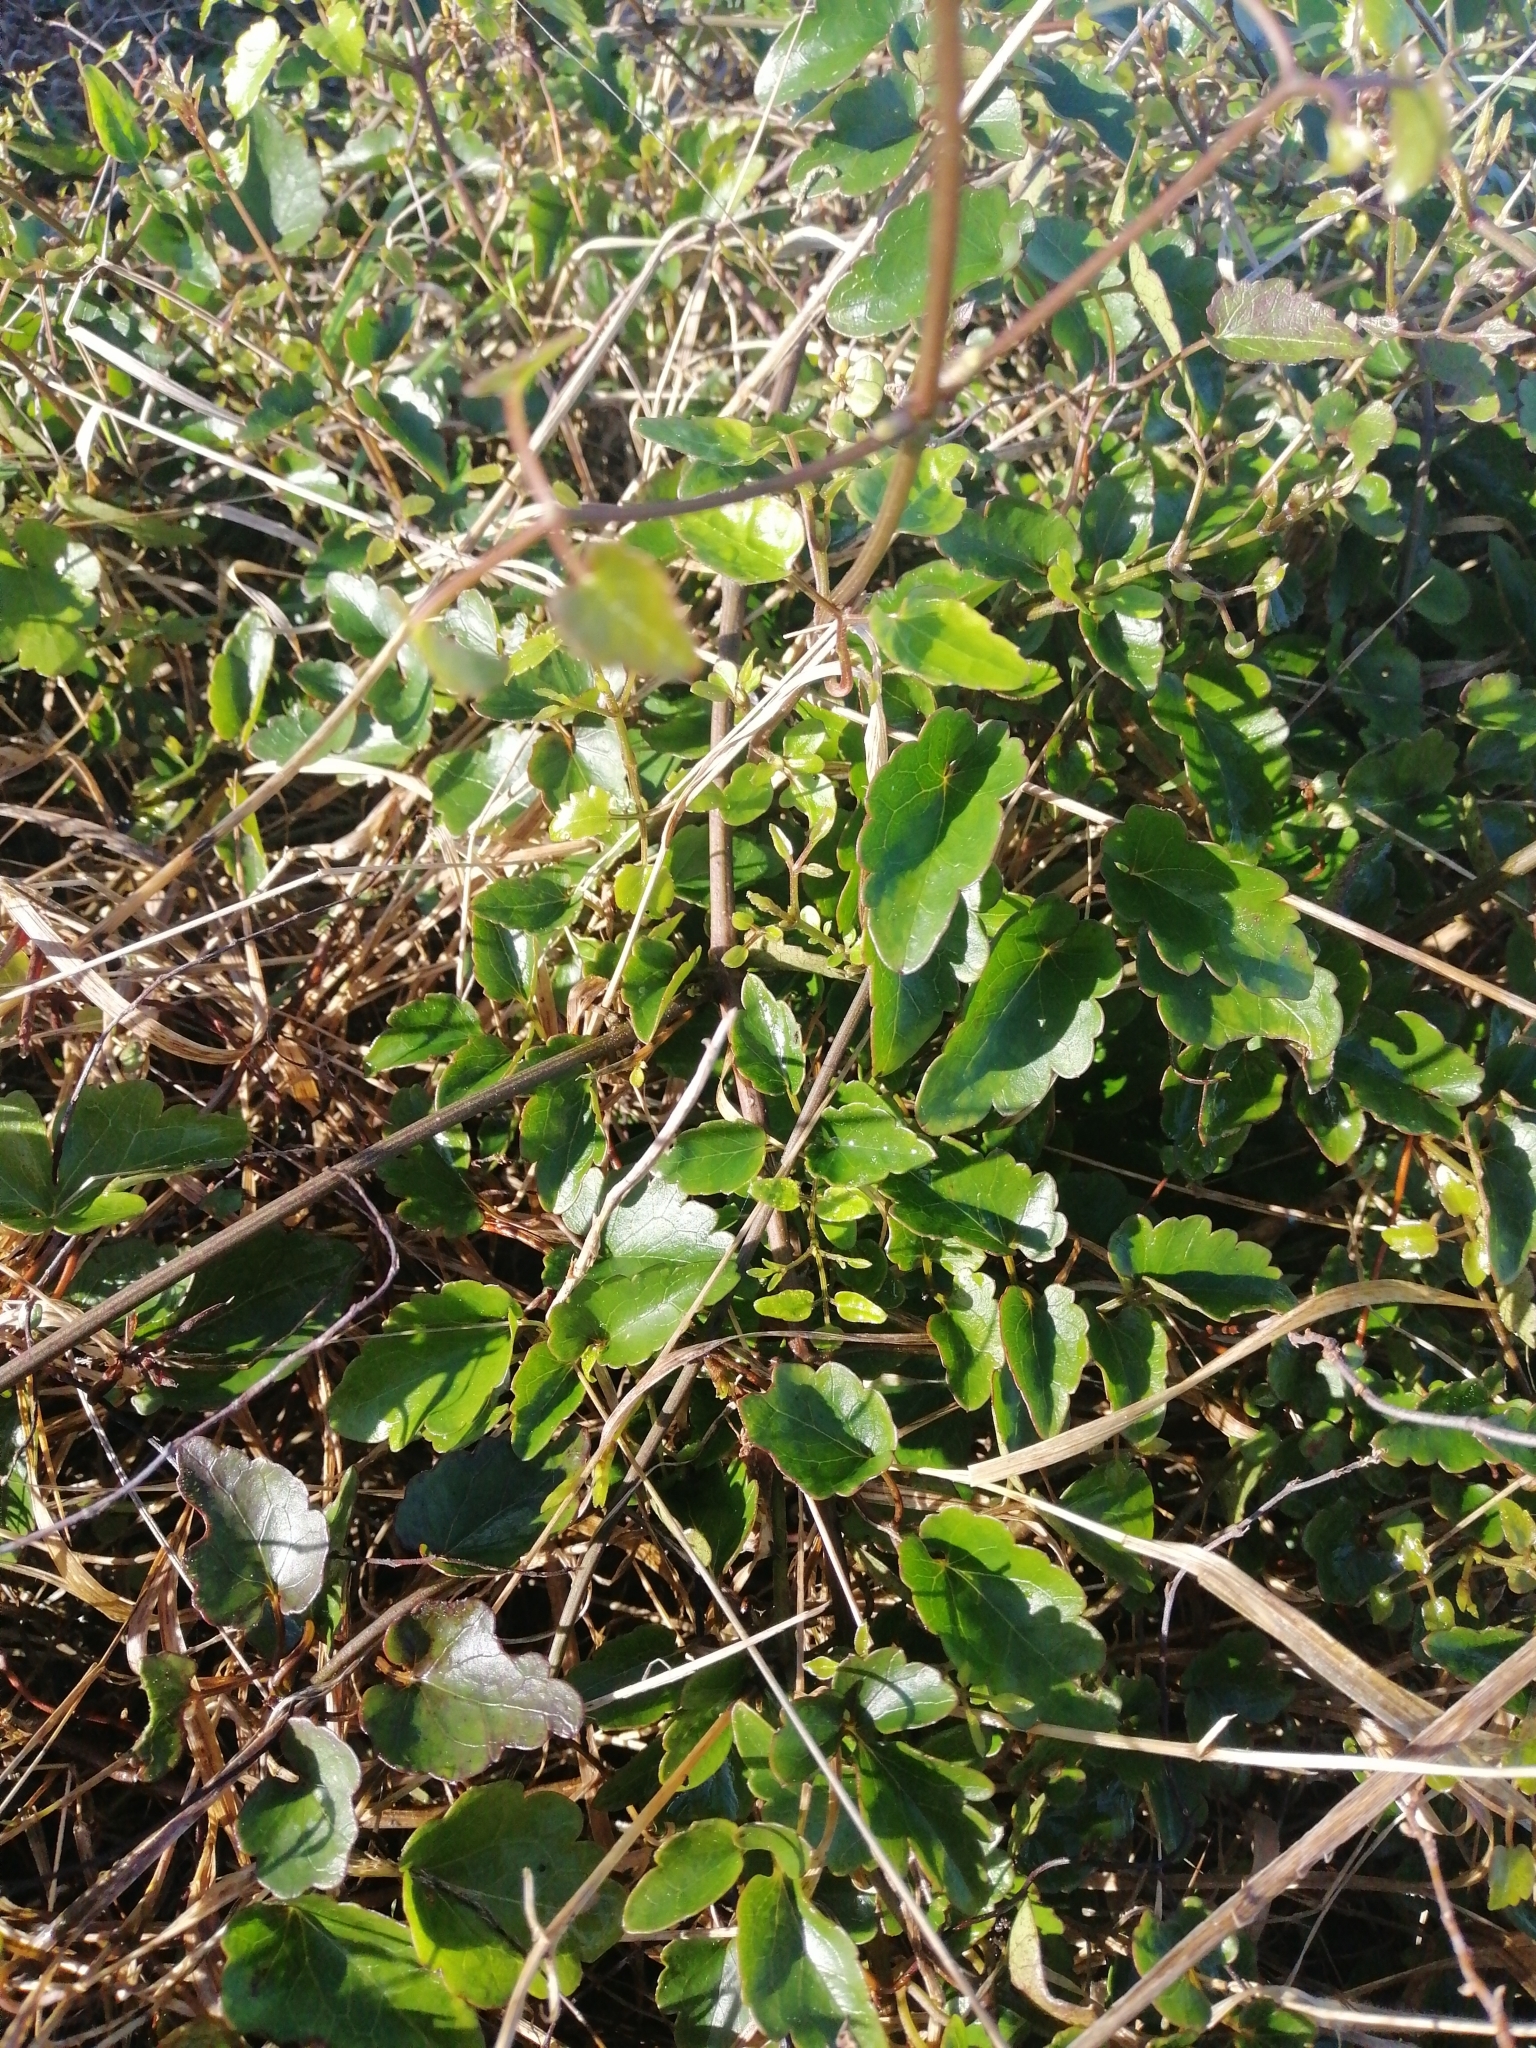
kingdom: Plantae
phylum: Tracheophyta
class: Magnoliopsida
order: Ranunculales
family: Ranunculaceae
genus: Clematis
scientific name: Clematis forsteri
